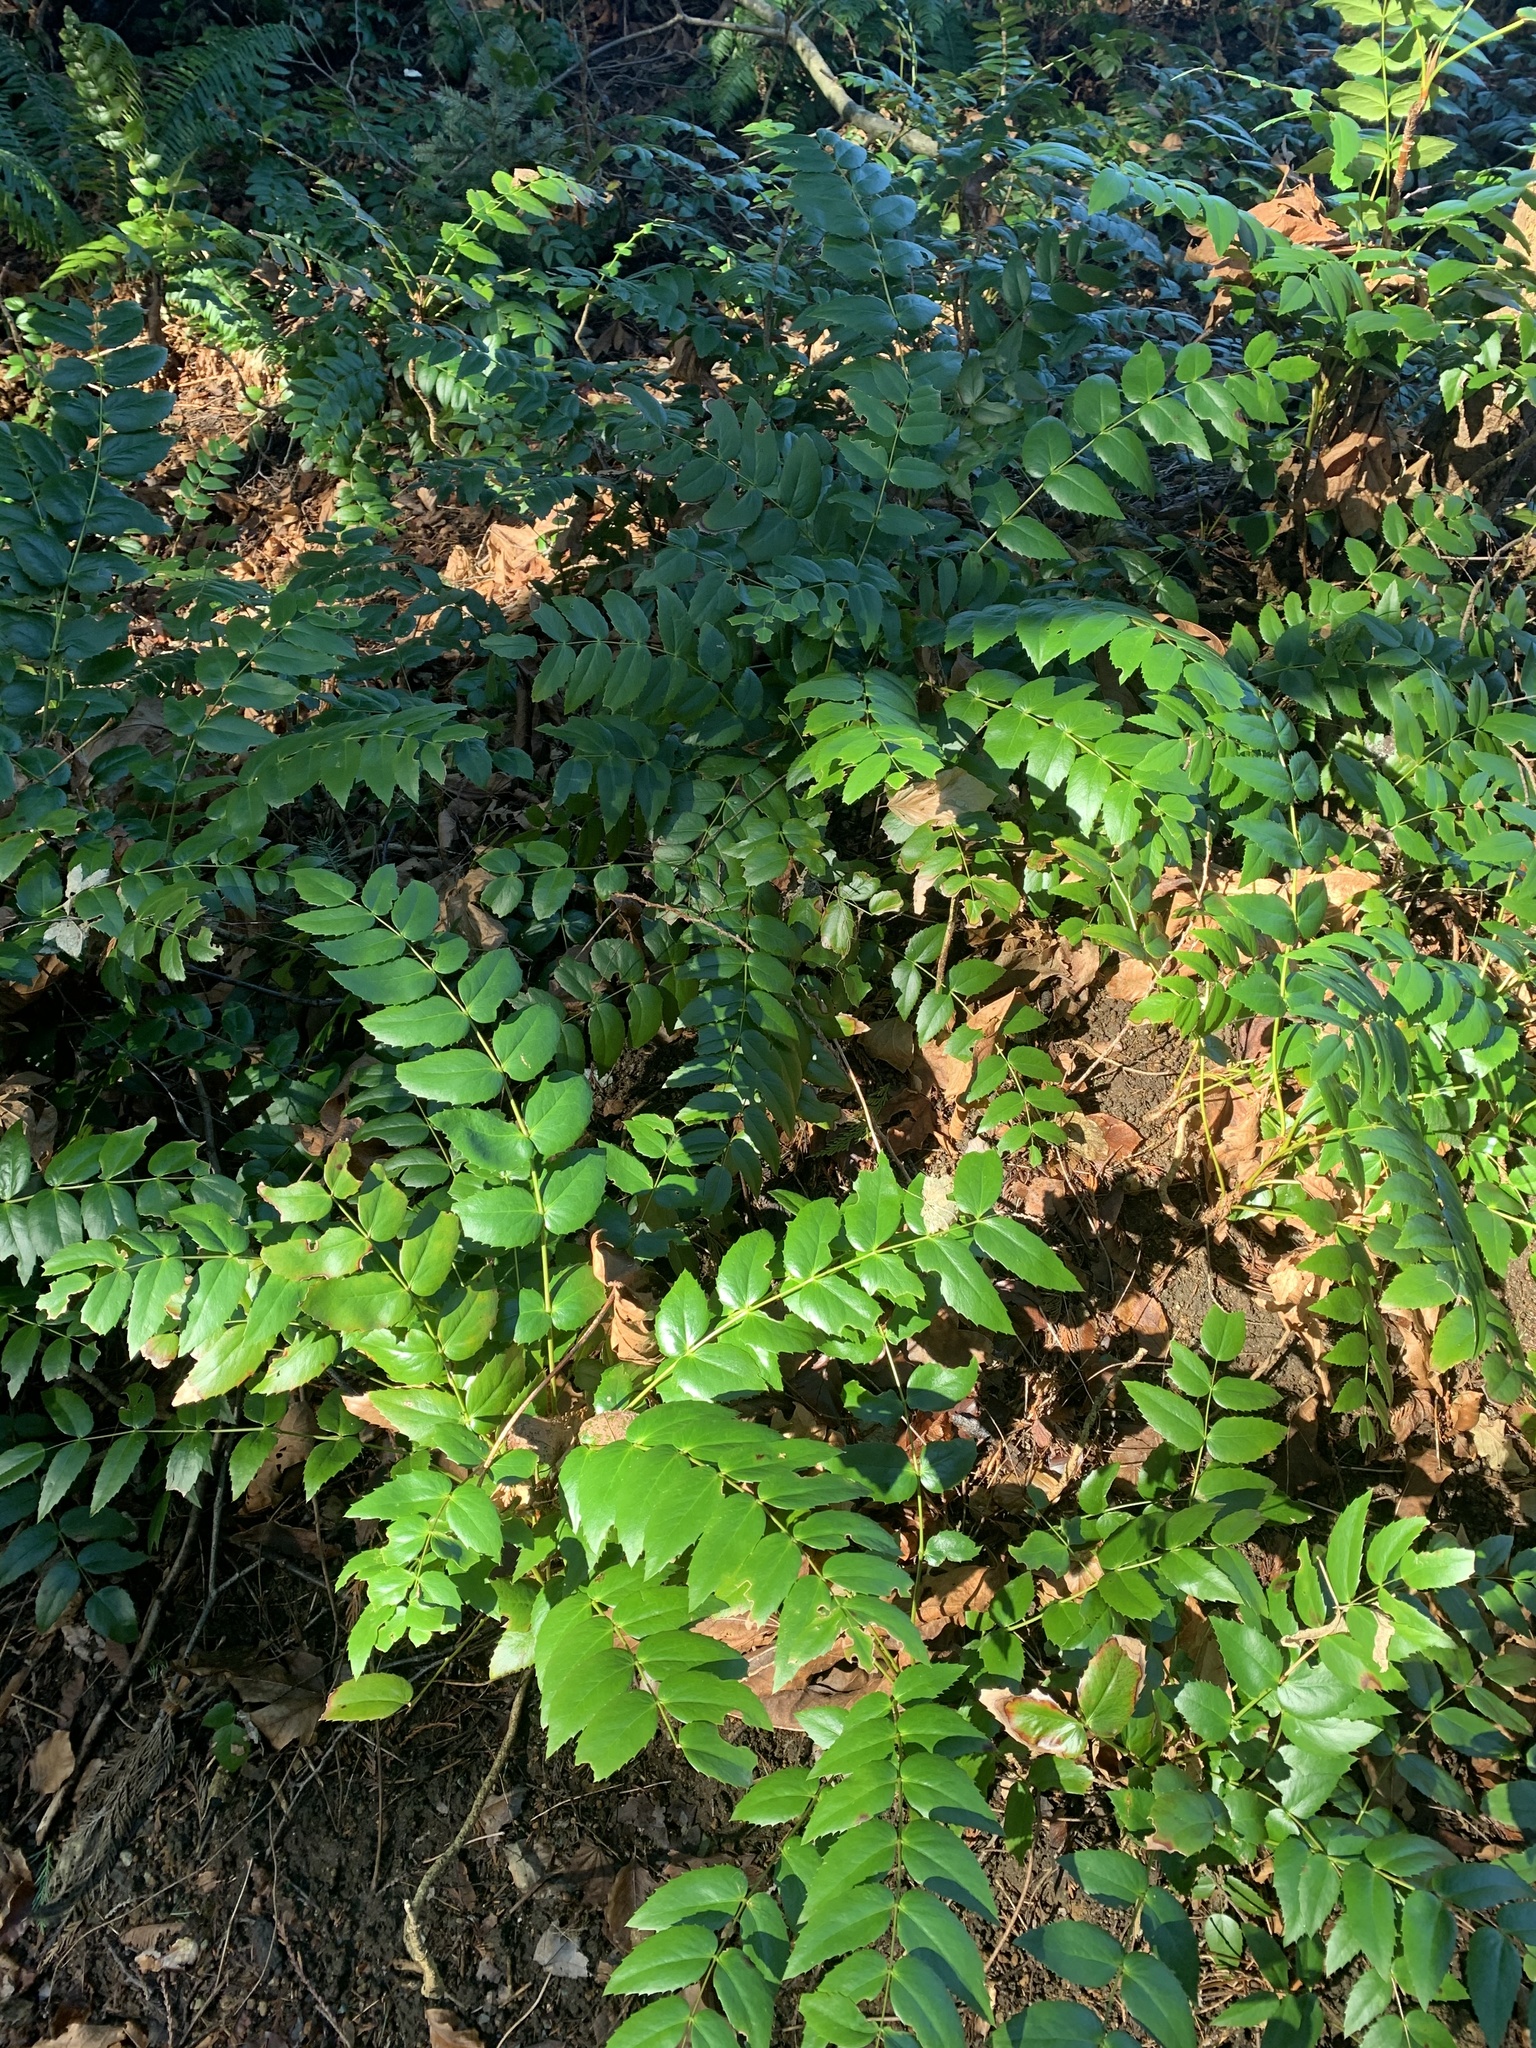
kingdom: Plantae
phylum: Tracheophyta
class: Magnoliopsida
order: Ranunculales
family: Berberidaceae
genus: Mahonia
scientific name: Mahonia nervosa
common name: Cascade oregon-grape
